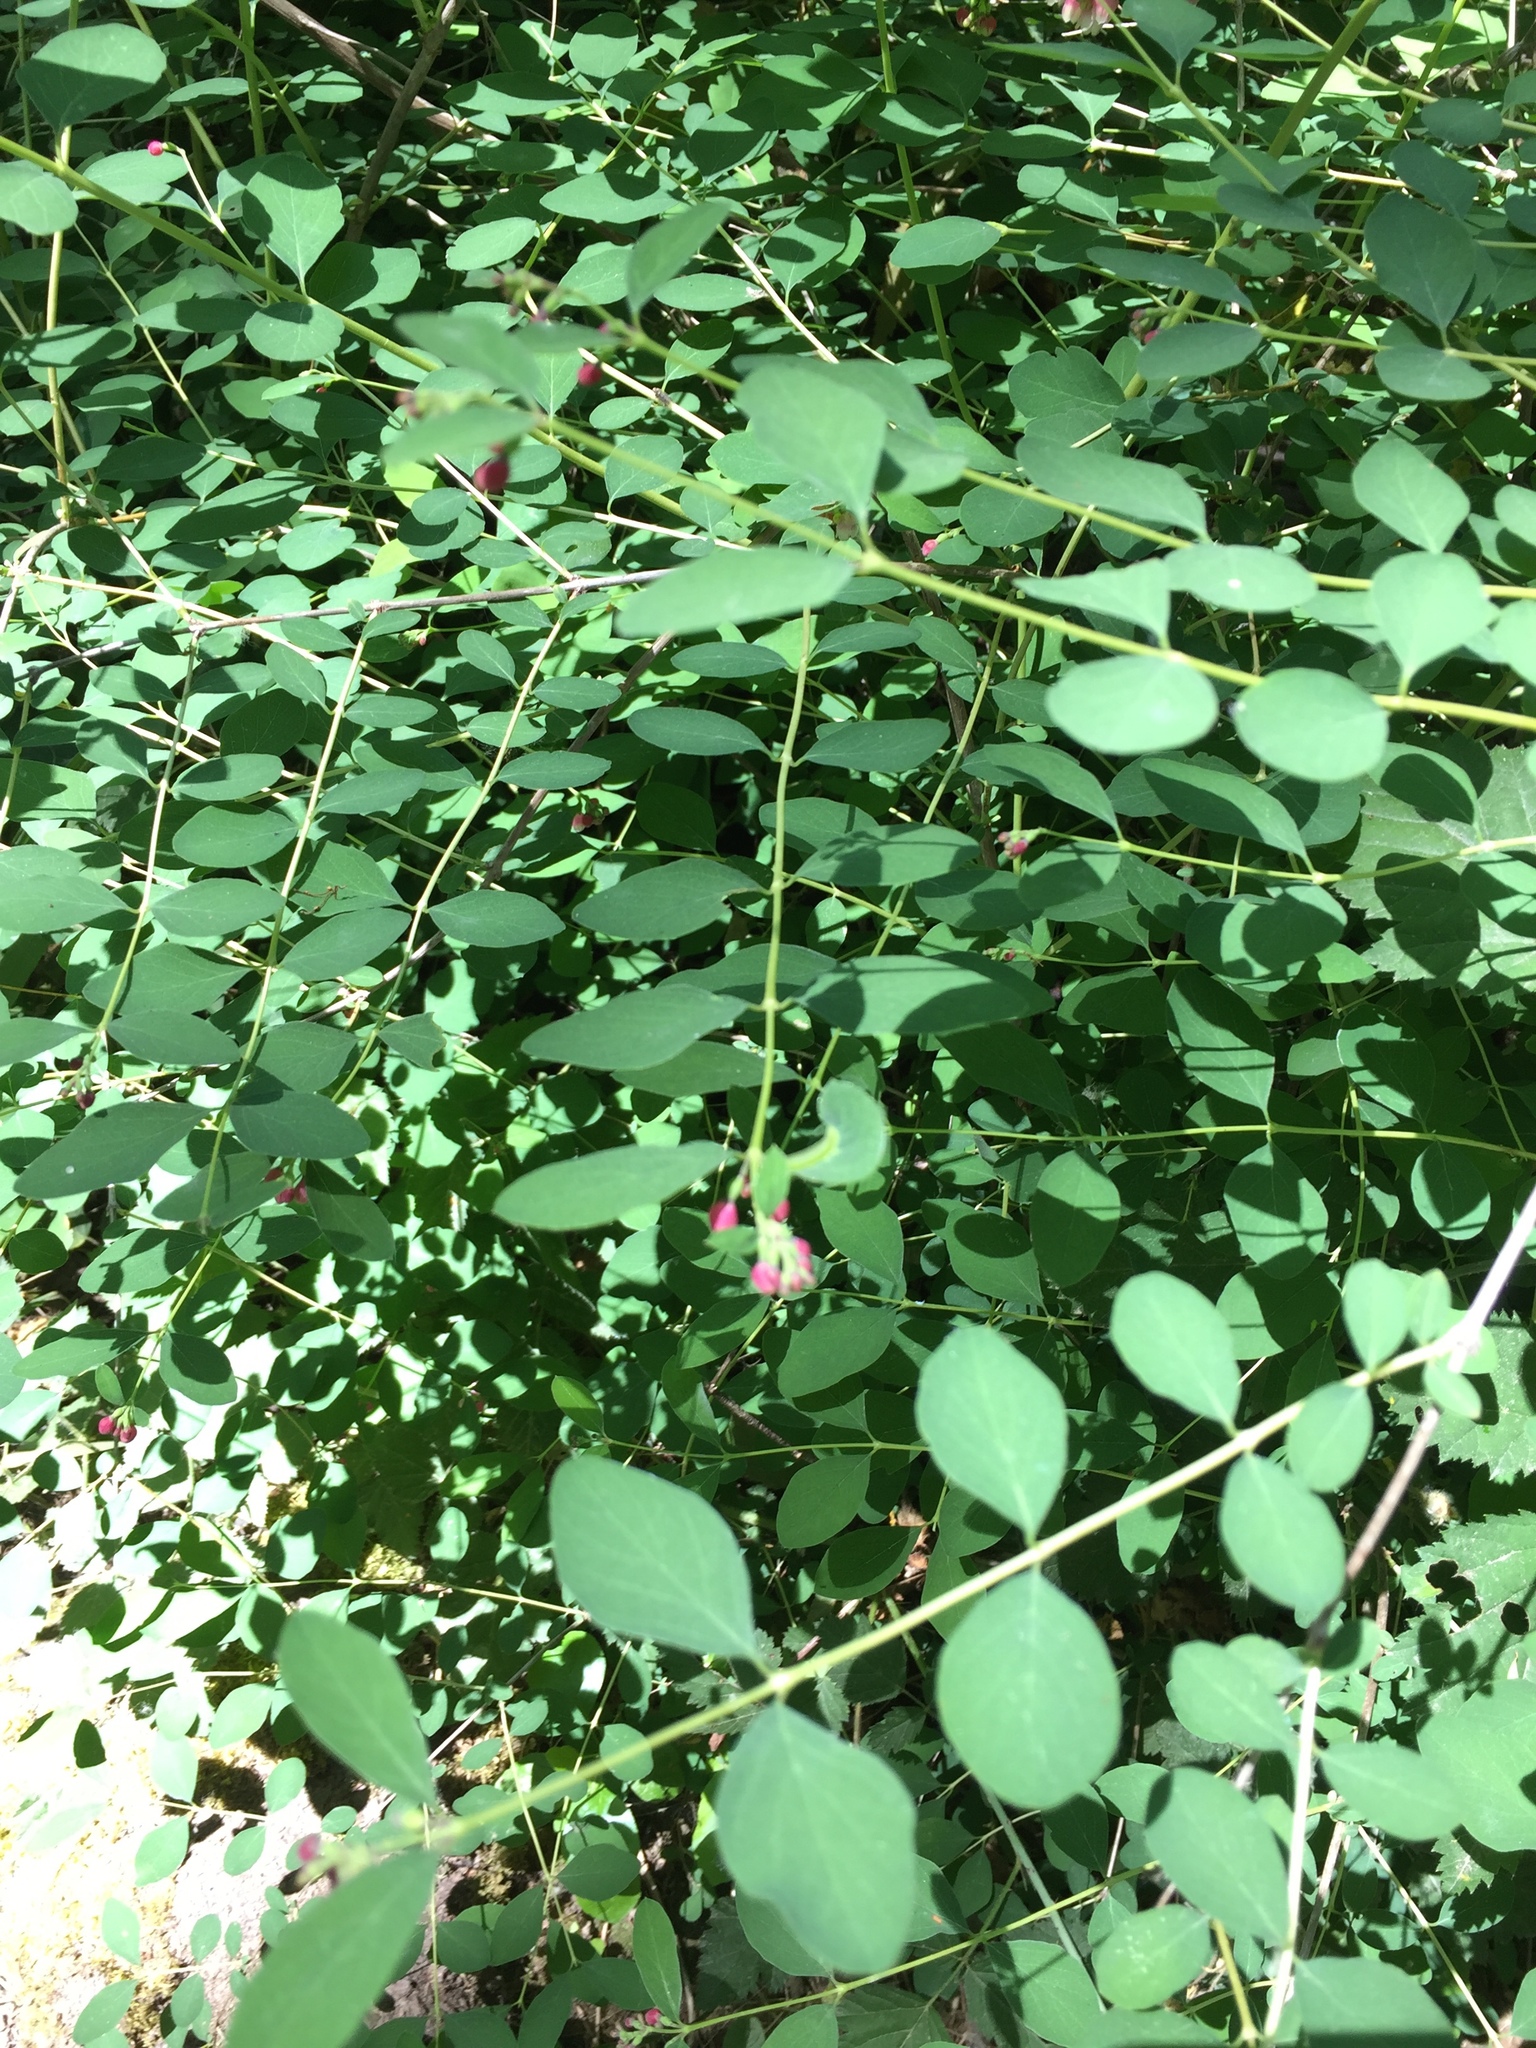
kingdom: Plantae
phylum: Tracheophyta
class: Magnoliopsida
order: Dipsacales
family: Caprifoliaceae
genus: Symphoricarpos
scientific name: Symphoricarpos albus
